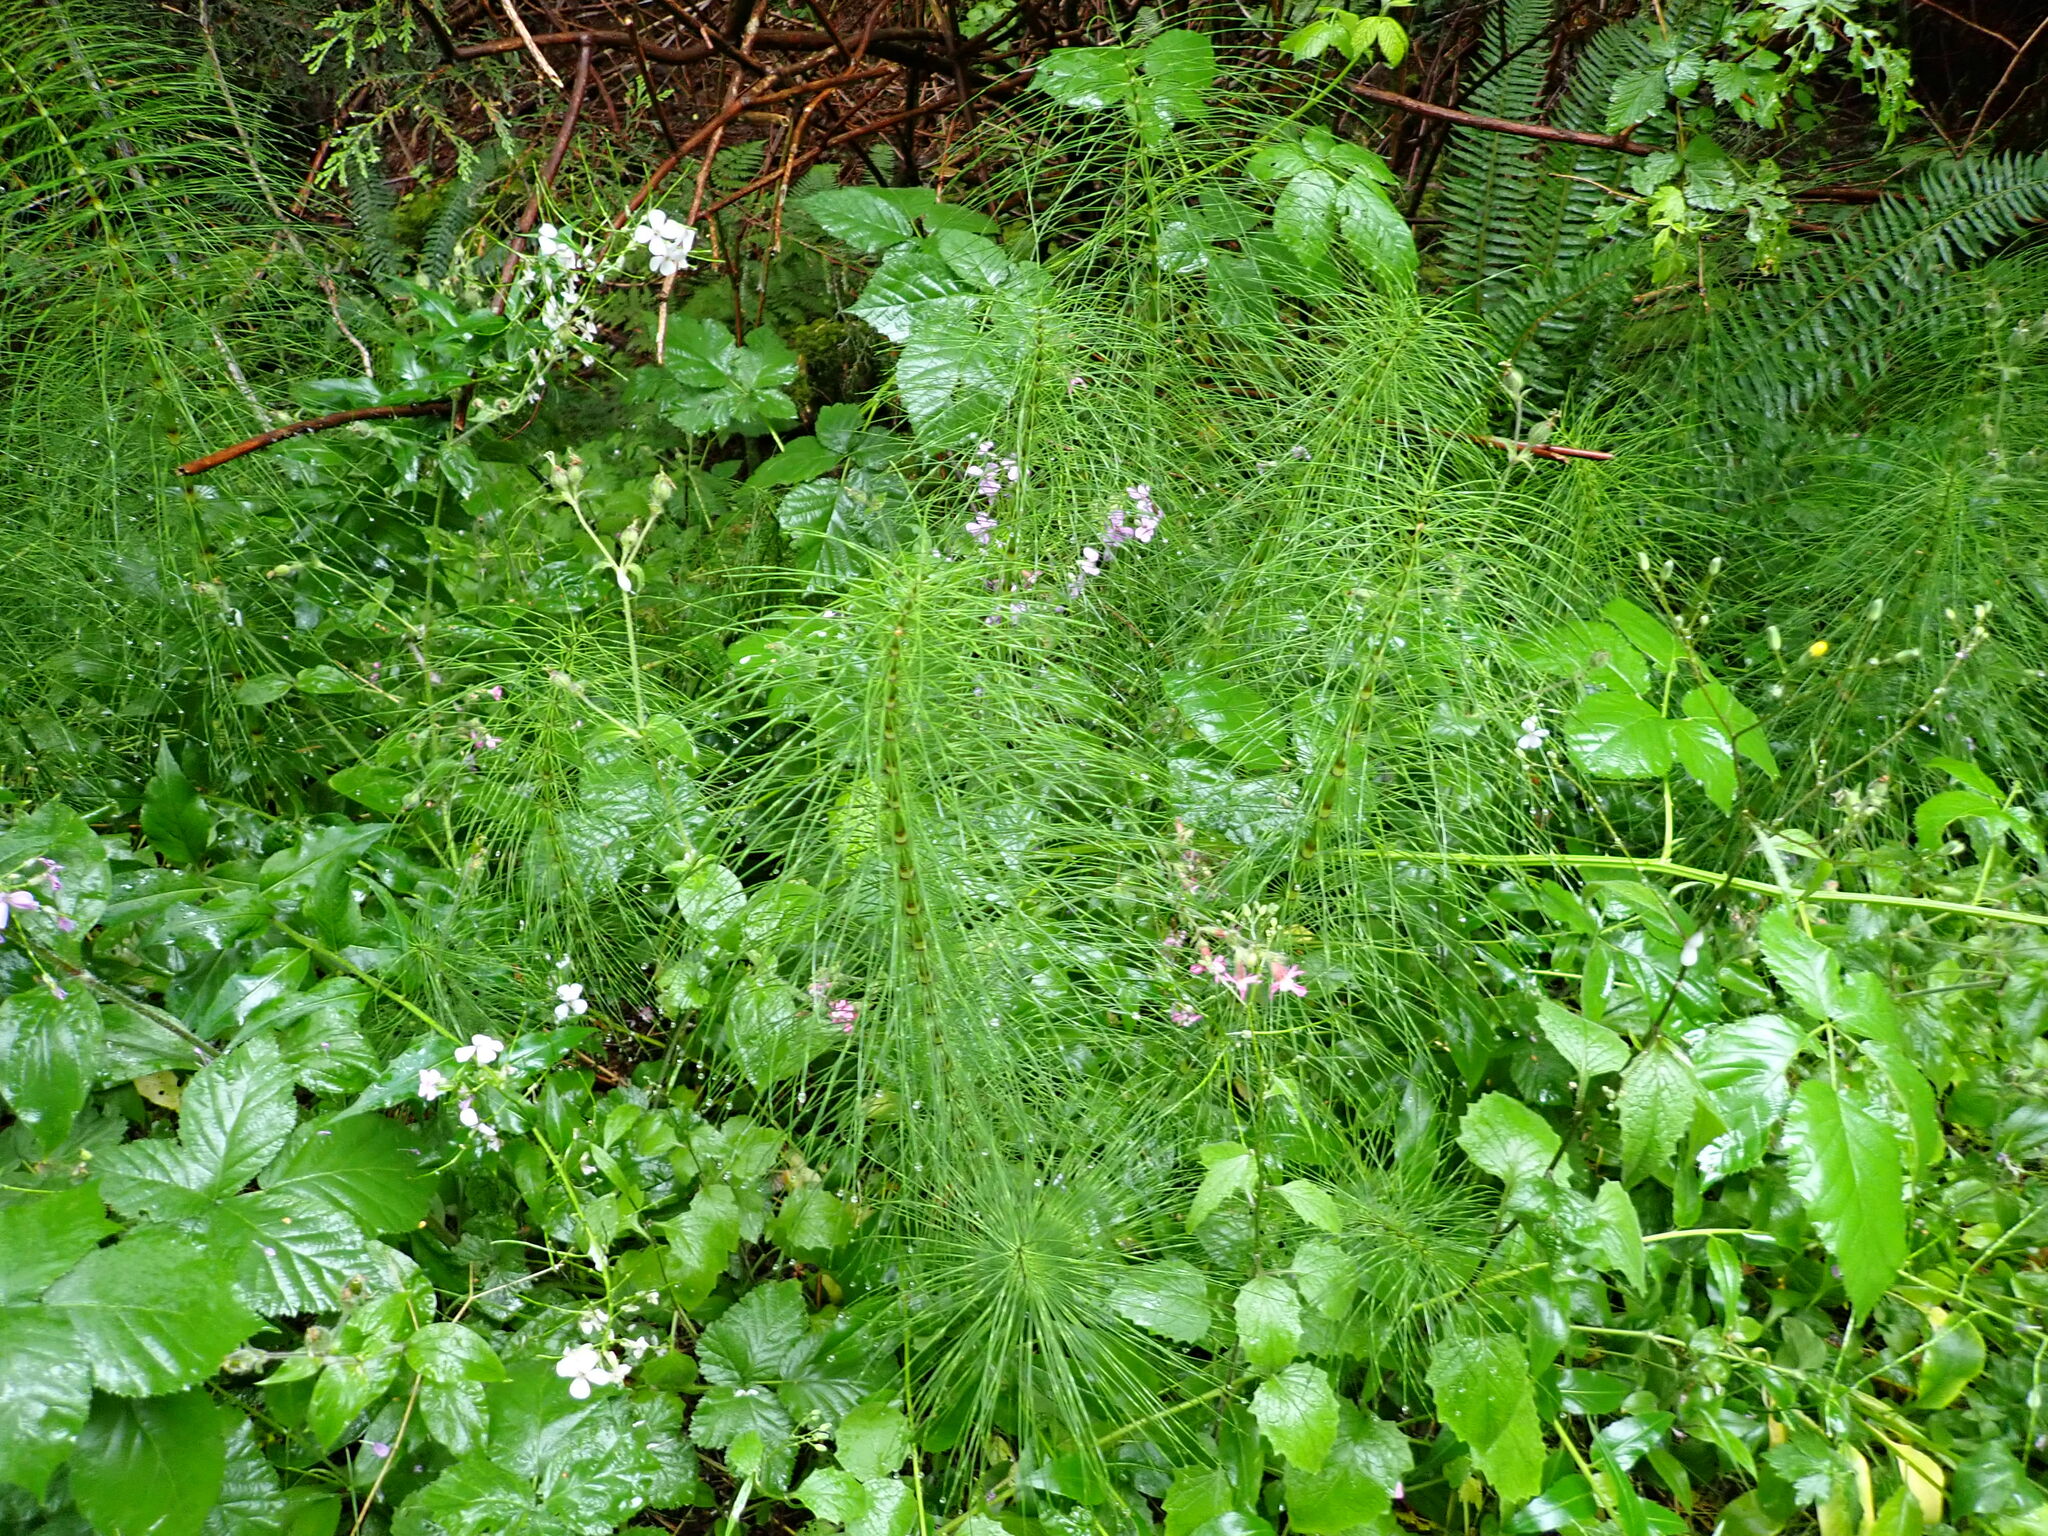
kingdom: Plantae
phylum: Tracheophyta
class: Polypodiopsida
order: Equisetales
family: Equisetaceae
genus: Equisetum
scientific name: Equisetum braunii
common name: Braun's horsetail
